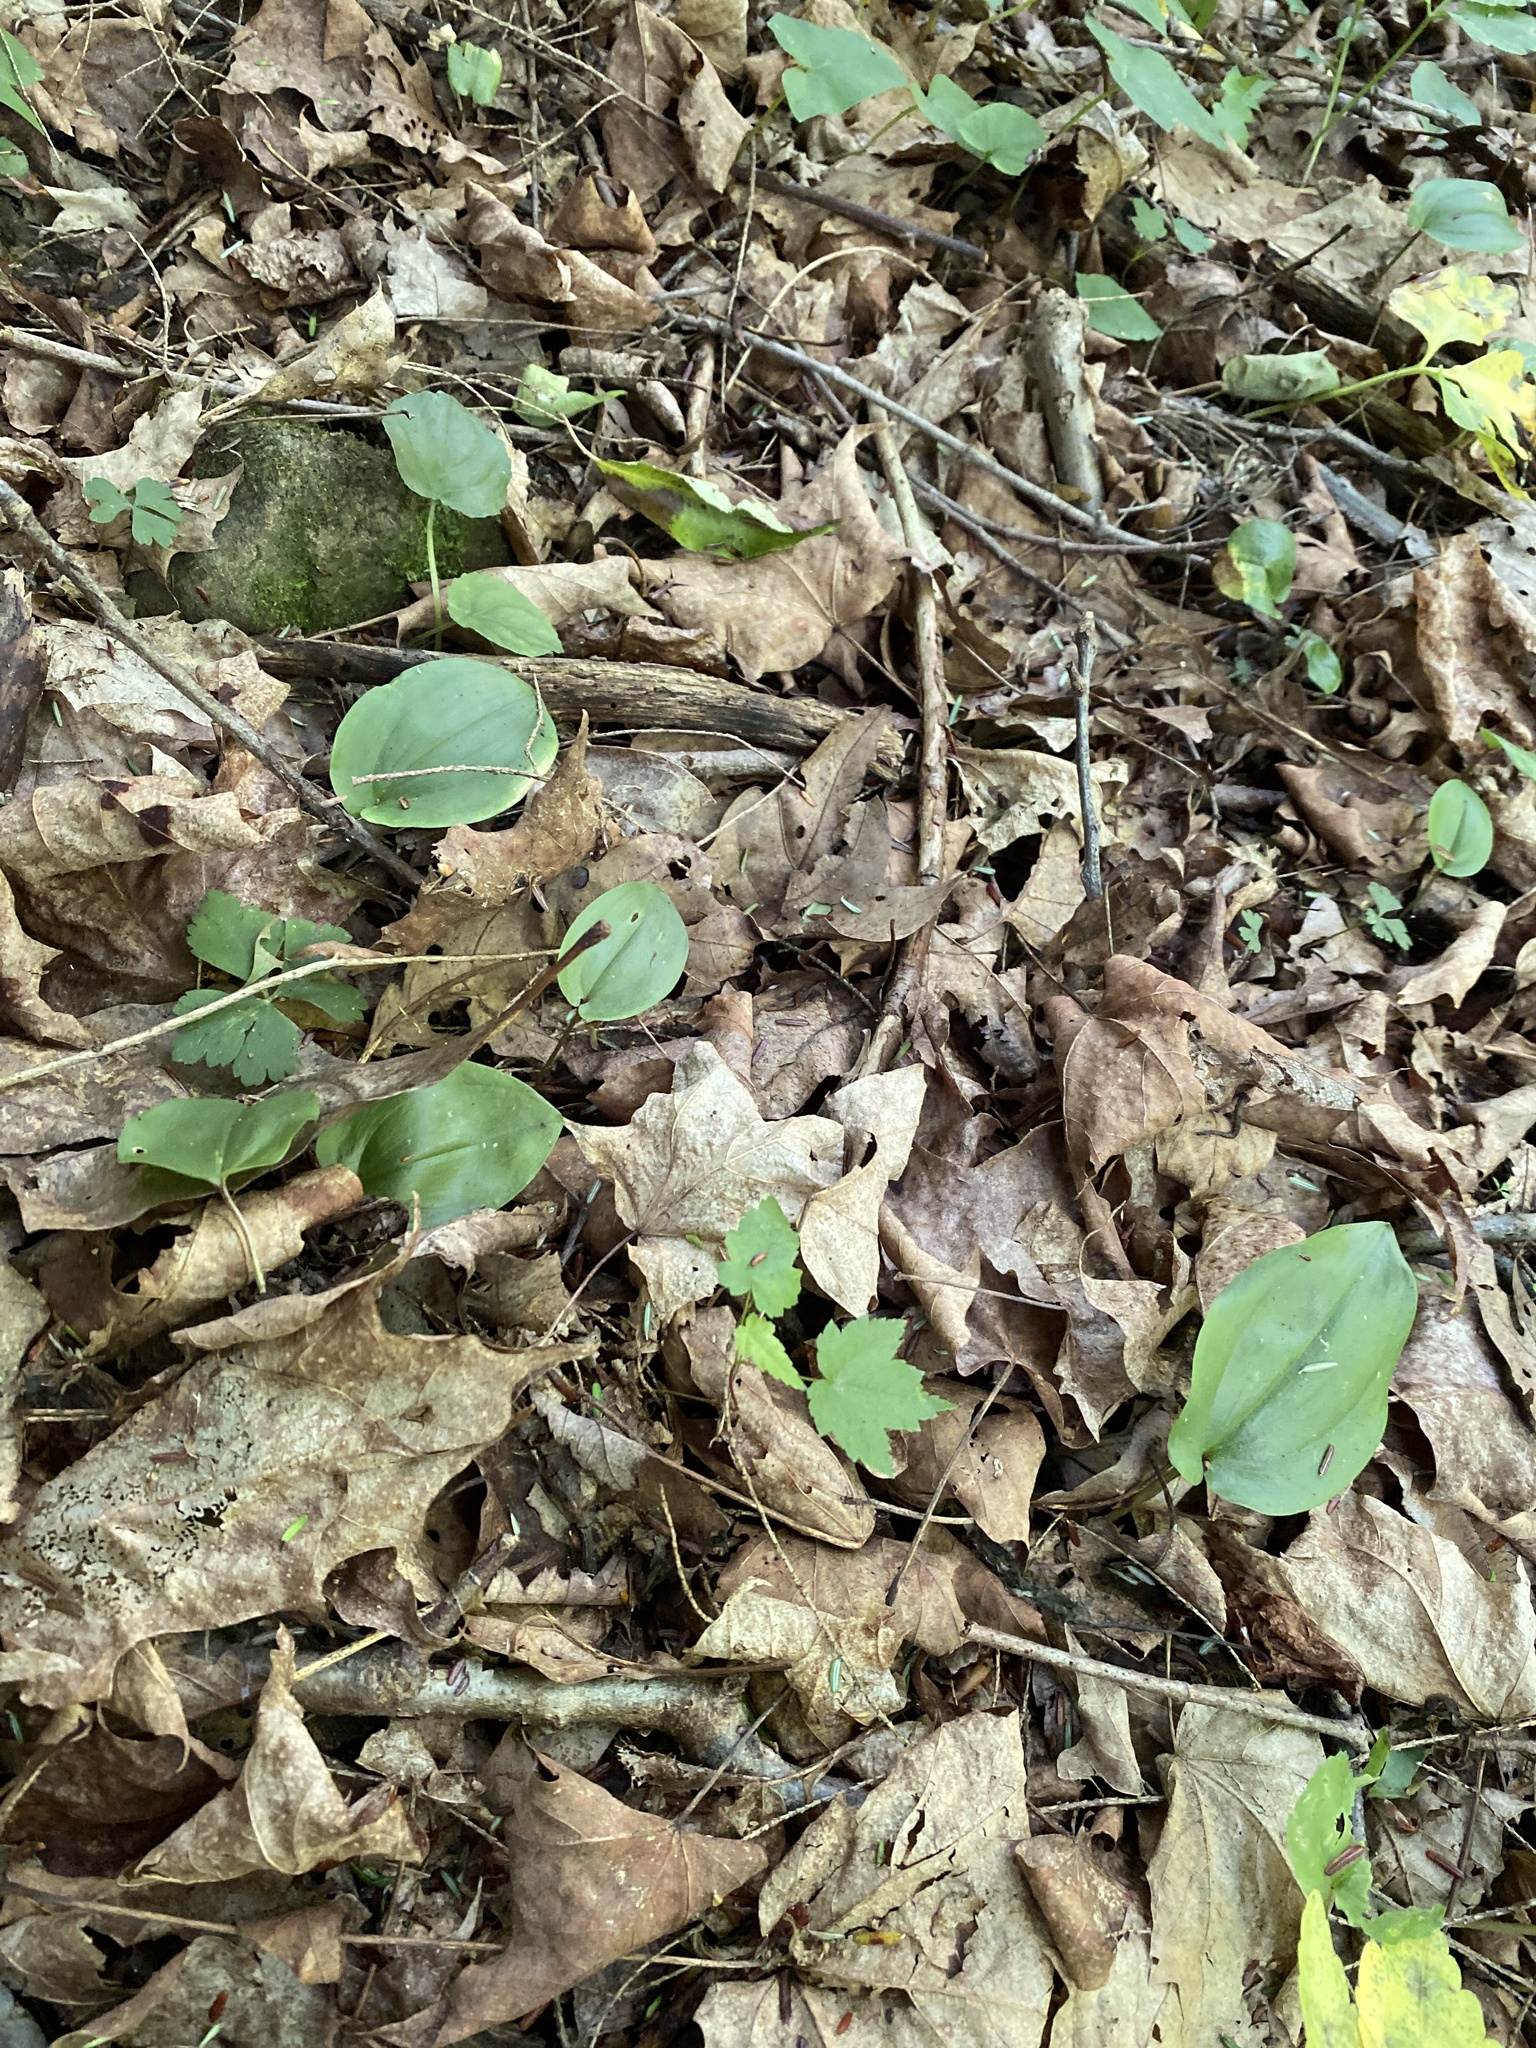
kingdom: Plantae
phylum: Tracheophyta
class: Liliopsida
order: Asparagales
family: Asparagaceae
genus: Maianthemum
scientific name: Maianthemum canadense
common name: False lily-of-the-valley
